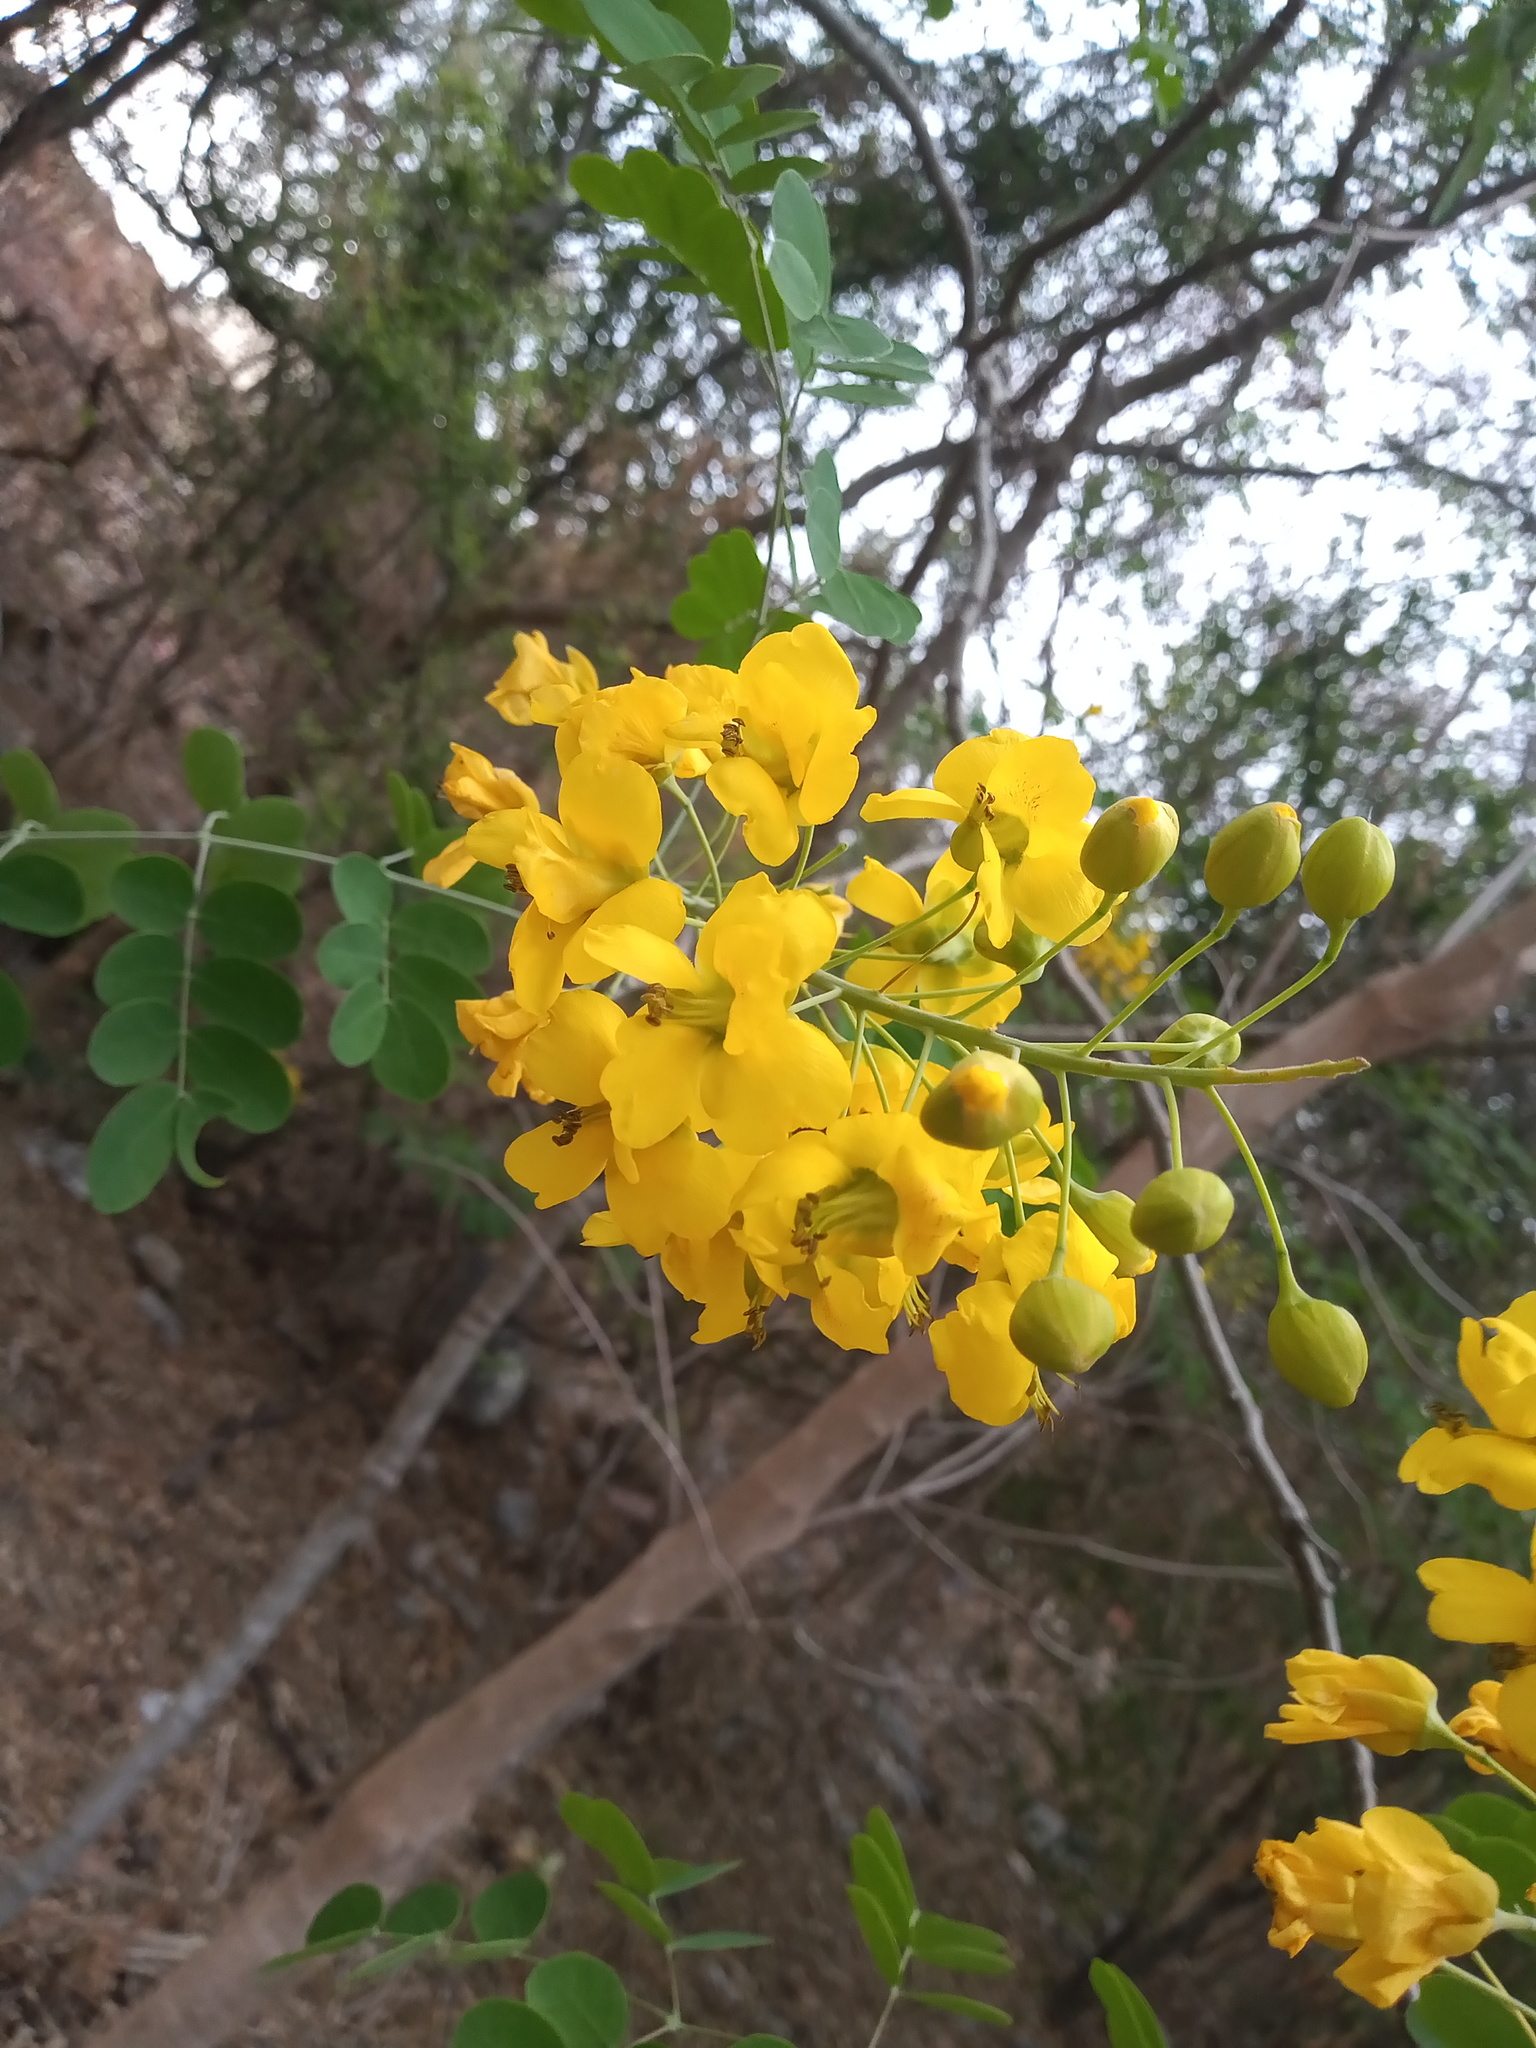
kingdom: Plantae
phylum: Tracheophyta
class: Magnoliopsida
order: Fabales
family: Fabaceae
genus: Erythrostemon
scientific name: Erythrostemon mexicanus
